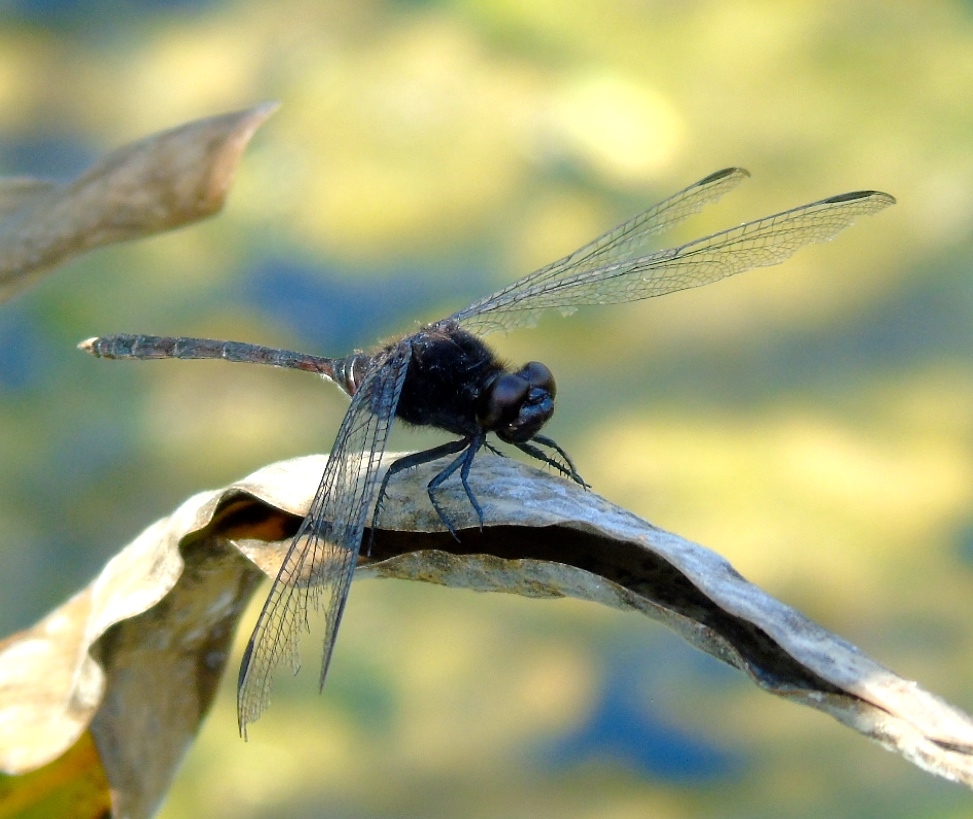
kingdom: Animalia
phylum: Arthropoda
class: Insecta
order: Odonata
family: Libellulidae
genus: Erythemis
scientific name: Erythemis
